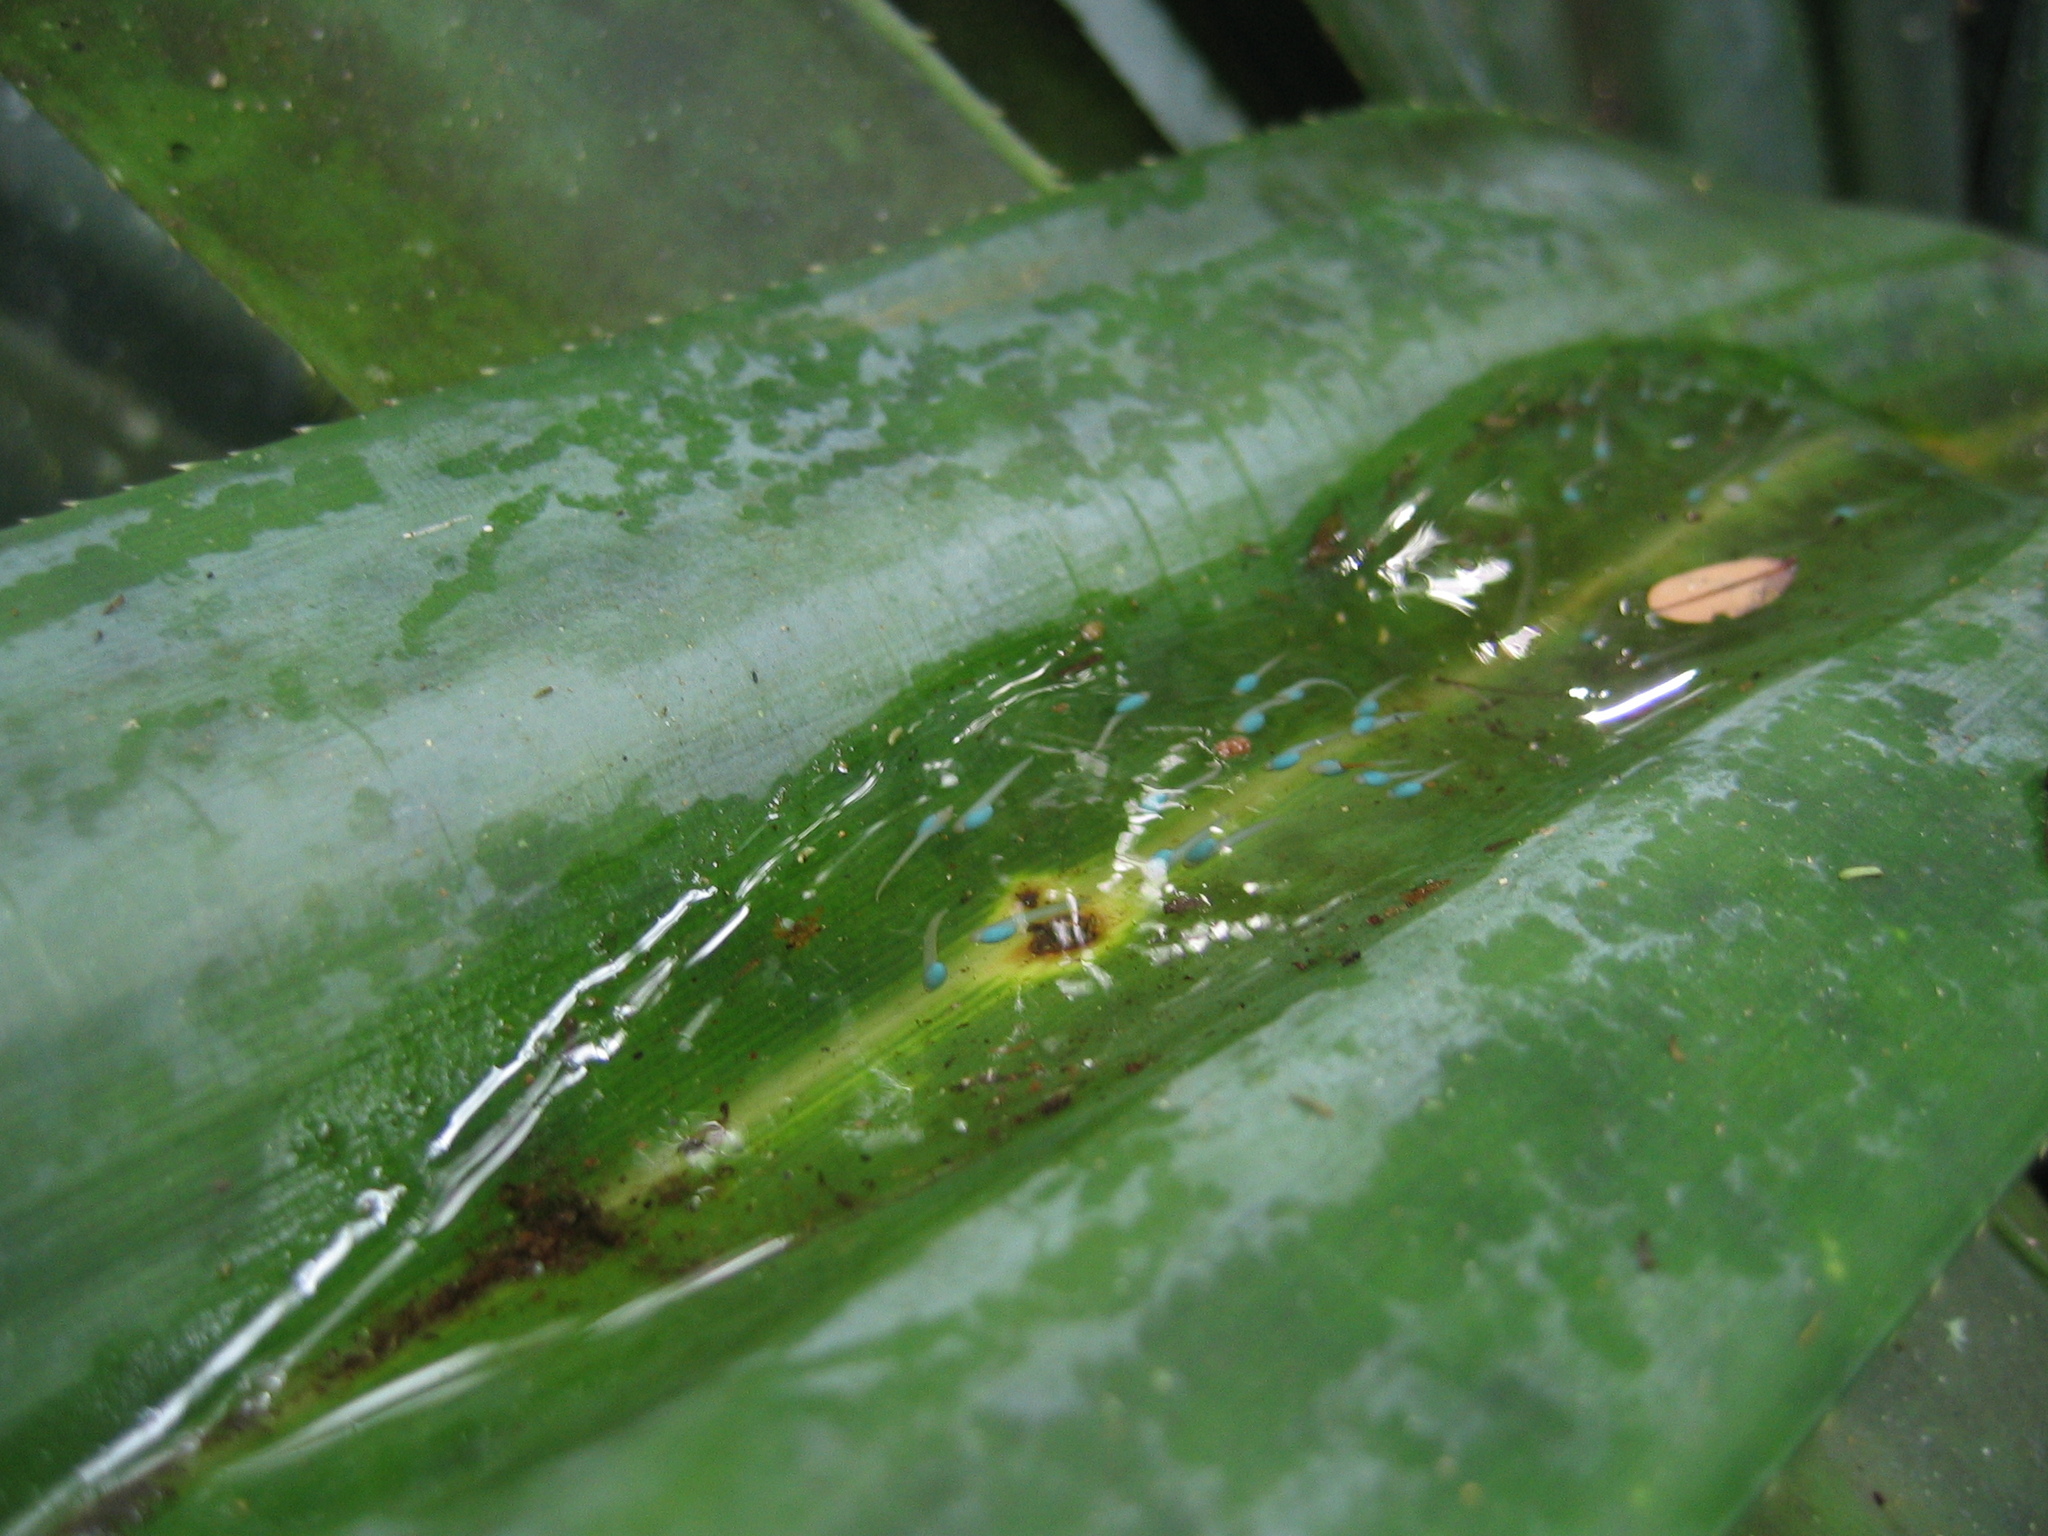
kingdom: Animalia
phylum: Chordata
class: Amphibia
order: Anura
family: Mantellidae
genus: Guibemantis
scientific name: Guibemantis pulcher
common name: Tsarafidy madagascar frog
